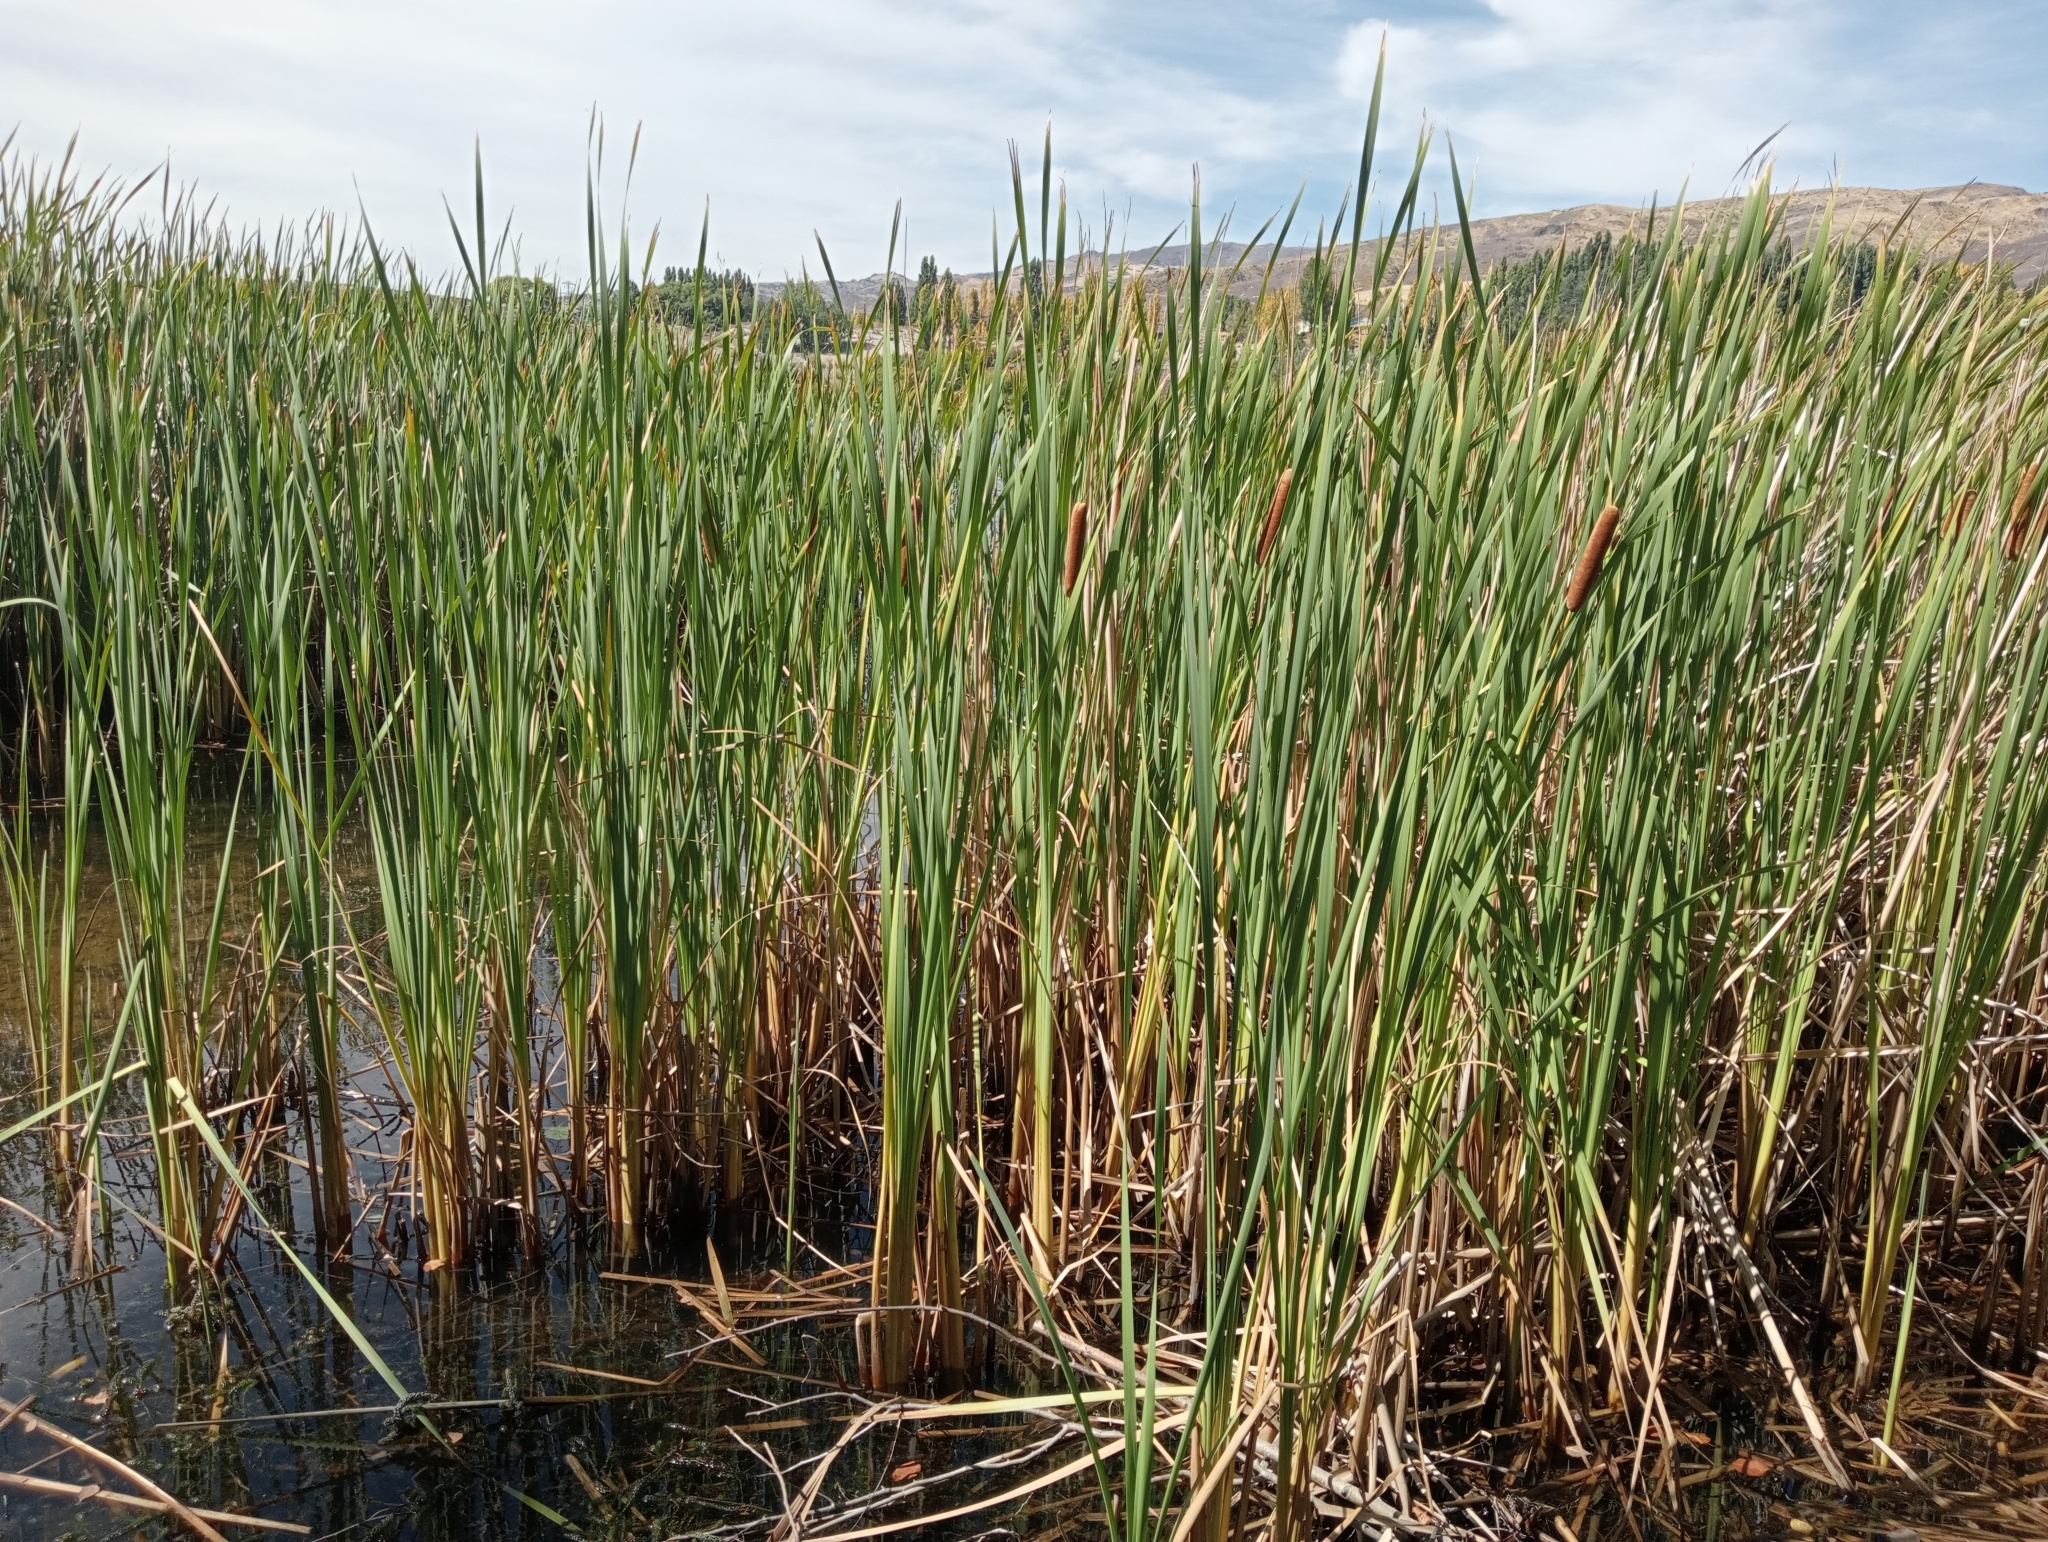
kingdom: Plantae
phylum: Tracheophyta
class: Liliopsida
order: Poales
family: Typhaceae
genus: Typha
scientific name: Typha orientalis
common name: Bullrush
